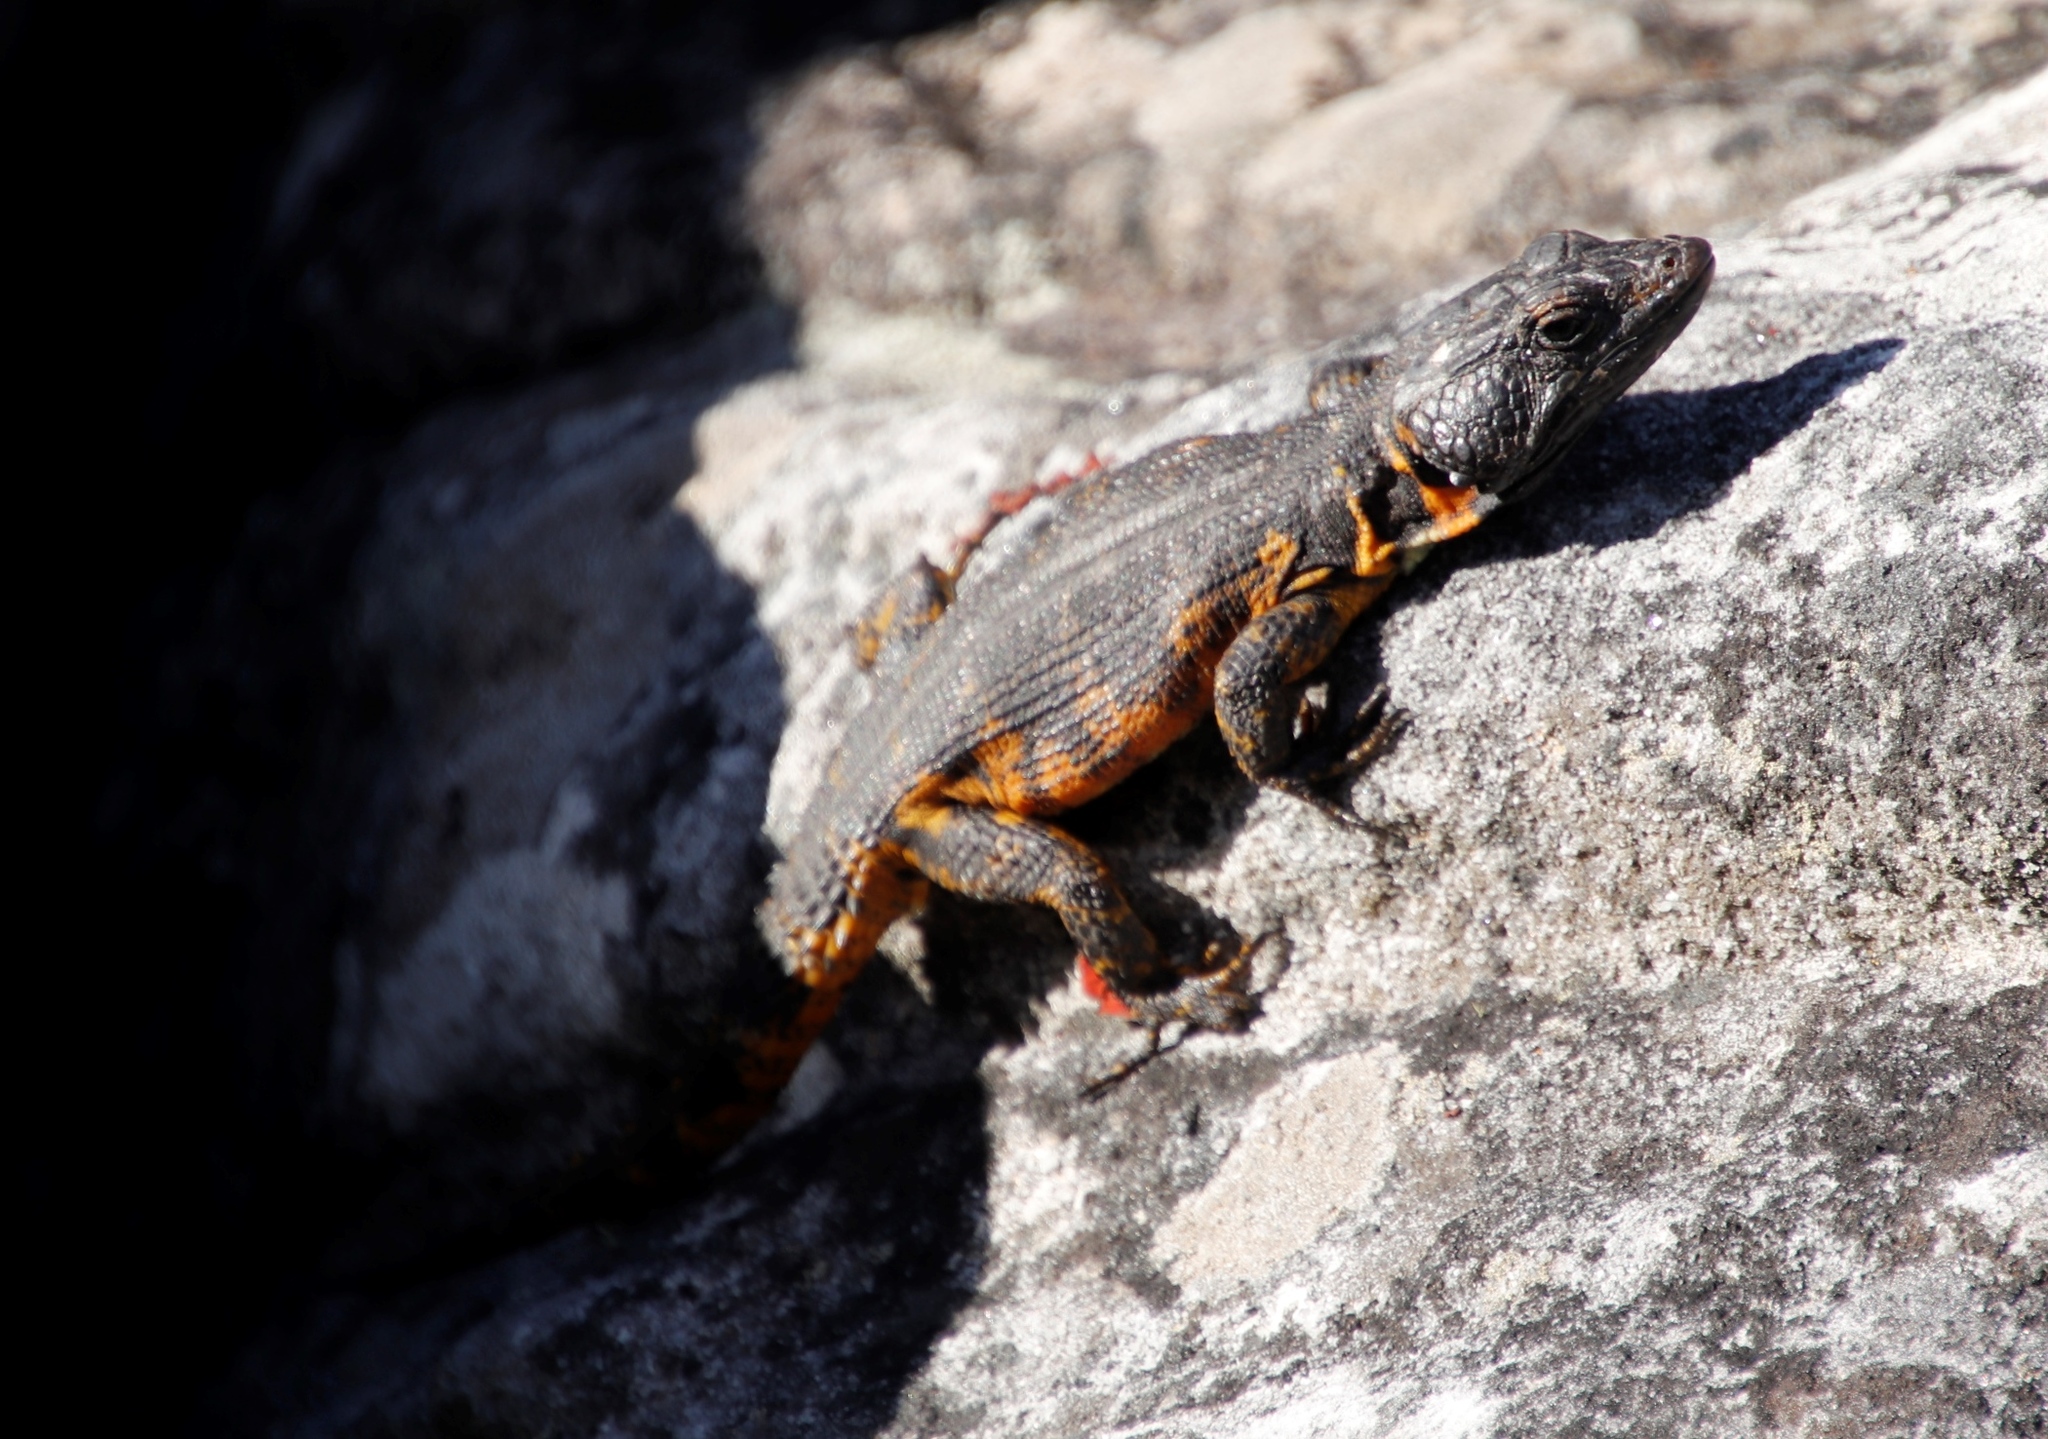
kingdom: Animalia
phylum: Chordata
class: Squamata
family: Cordylidae
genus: Pseudocordylus
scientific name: Pseudocordylus microlepidotus
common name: Cape crag lizard
